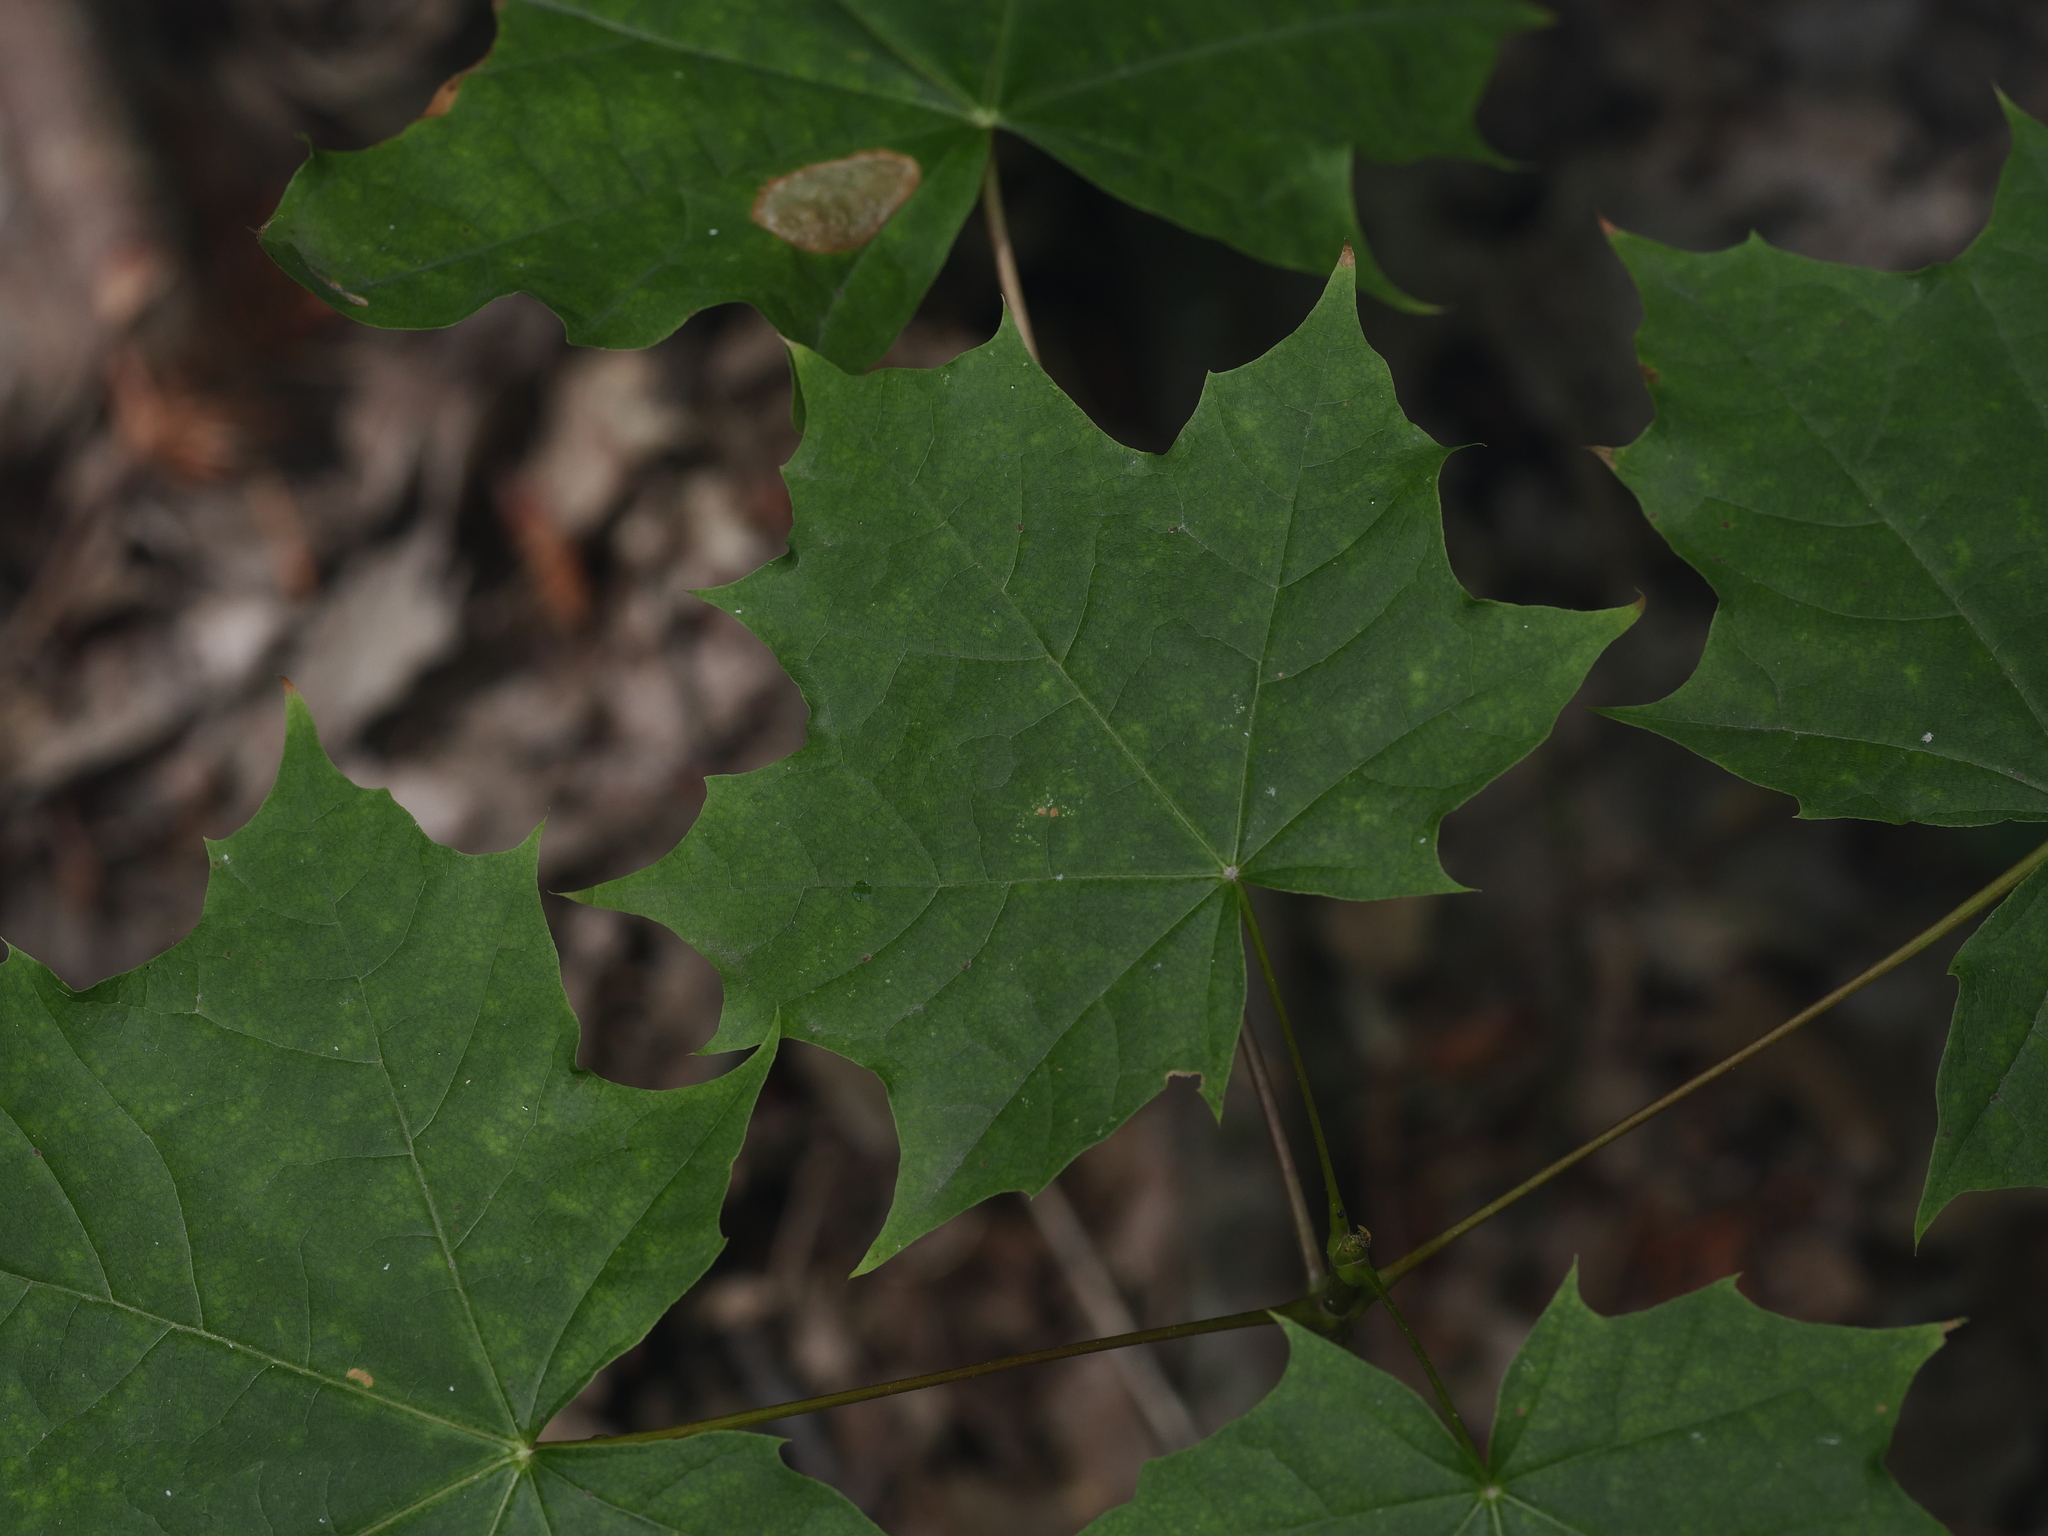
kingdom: Plantae
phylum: Tracheophyta
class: Magnoliopsida
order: Sapindales
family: Sapindaceae
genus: Acer
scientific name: Acer platanoides
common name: Norway maple
